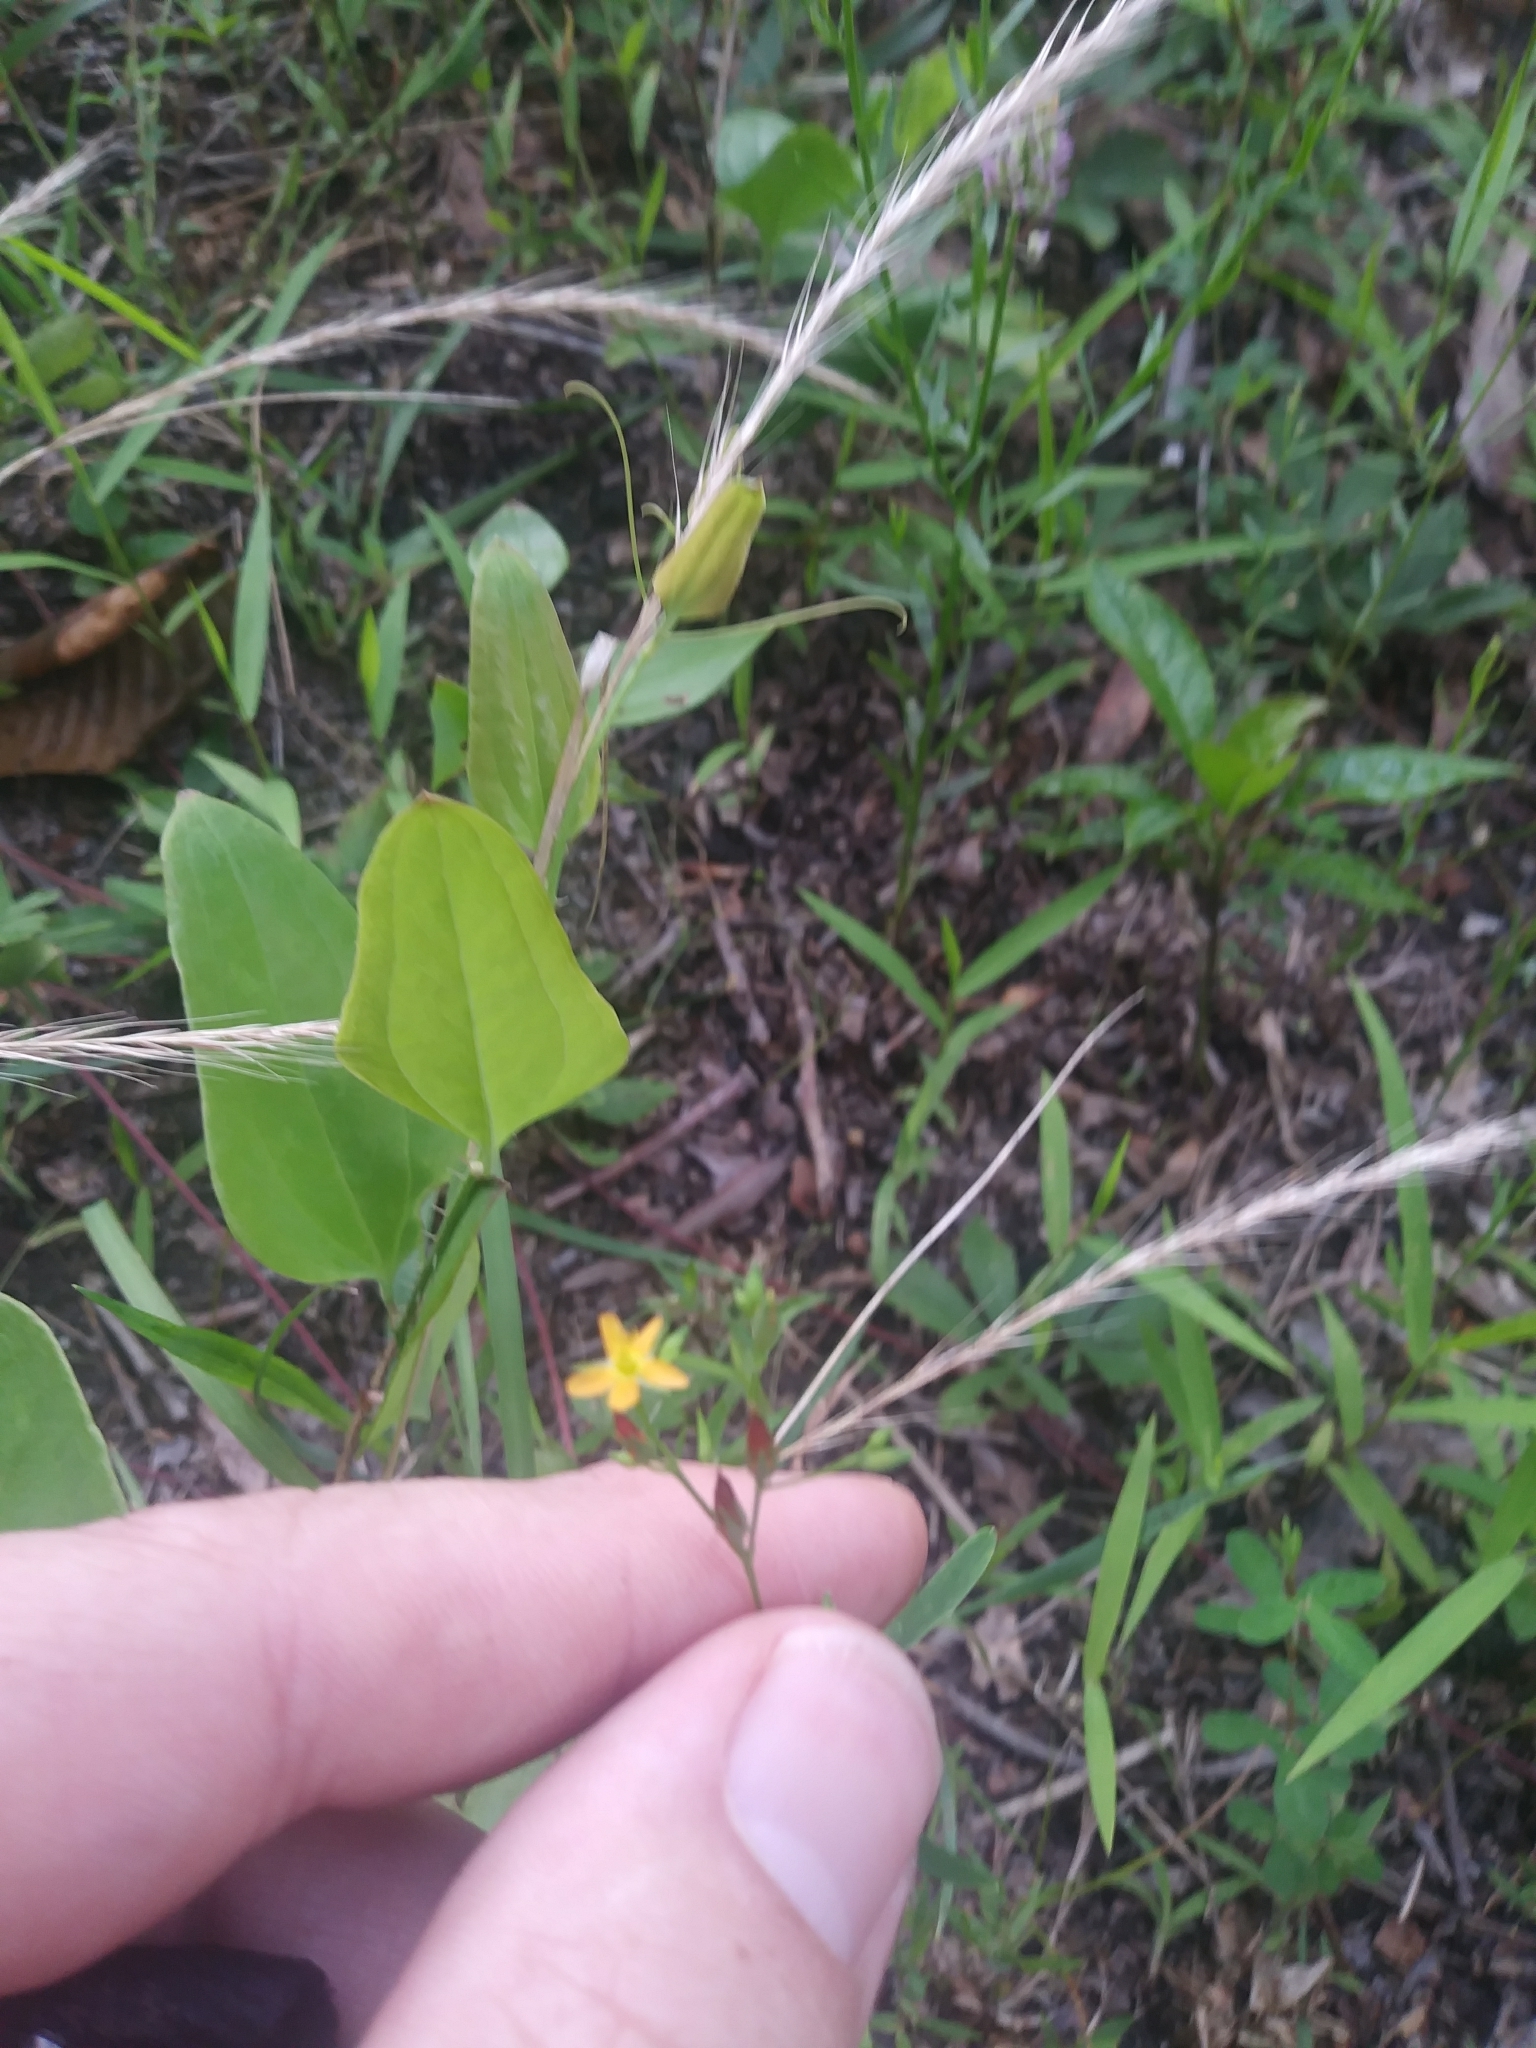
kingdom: Plantae
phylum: Tracheophyta
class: Magnoliopsida
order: Malpighiales
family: Hypericaceae
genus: Hypericum
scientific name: Hypericum canadense
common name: Irish st. john's-wort
